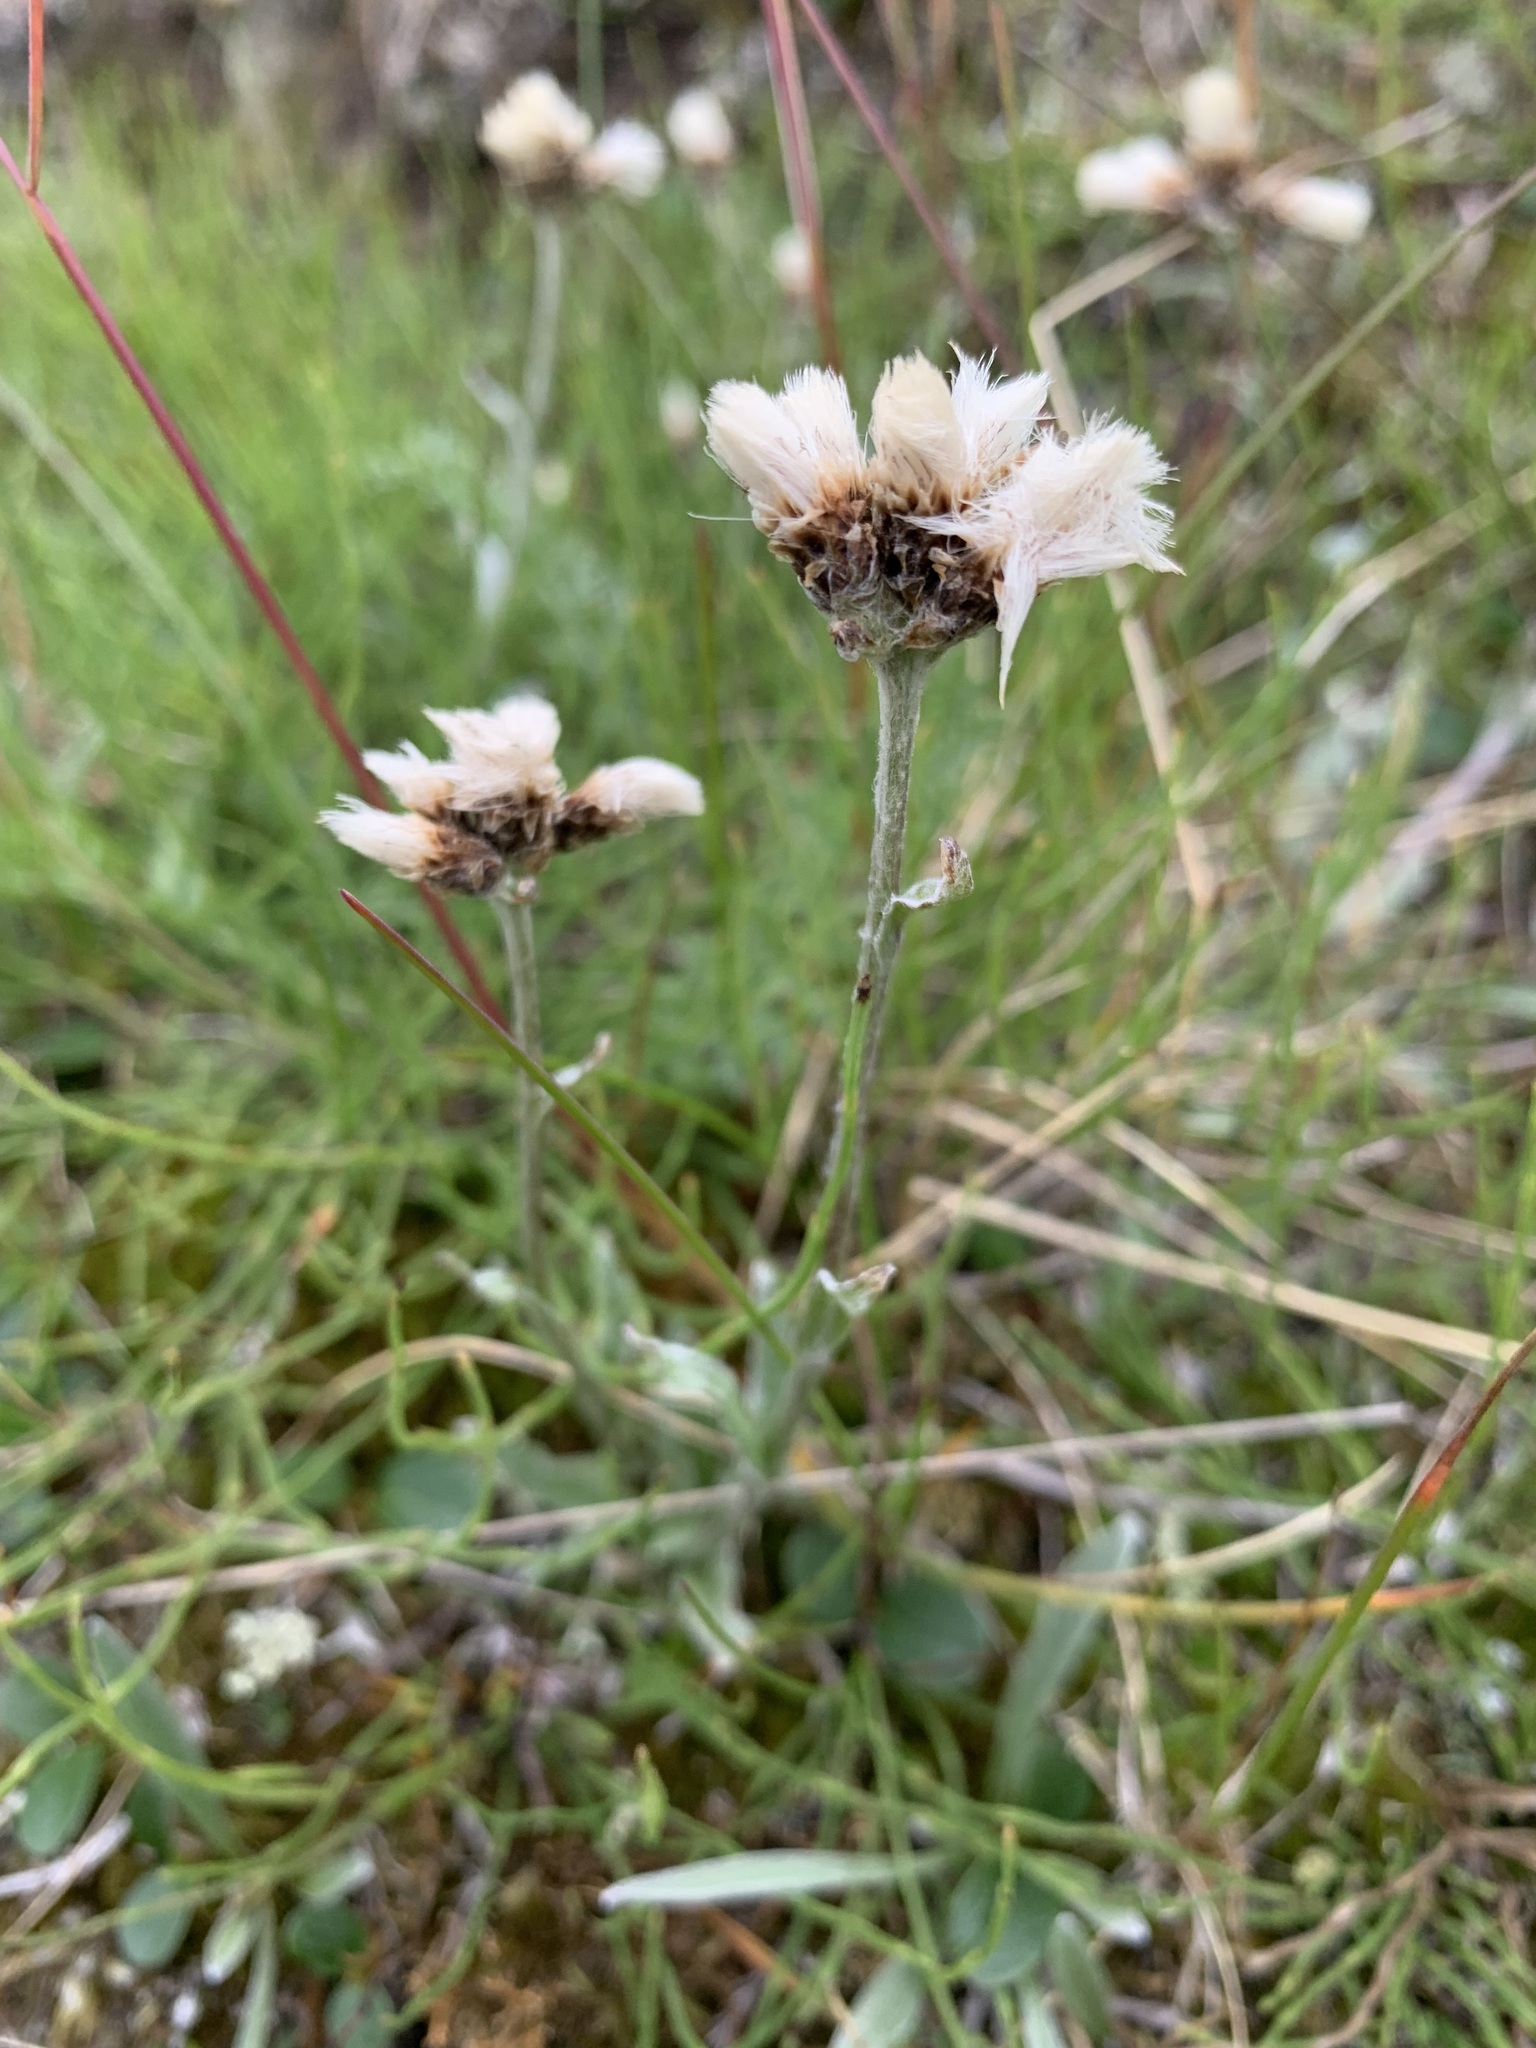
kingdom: Plantae
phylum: Tracheophyta
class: Magnoliopsida
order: Asterales
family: Asteraceae
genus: Antennaria
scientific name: Antennaria lanata
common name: Woolly pussytoes
